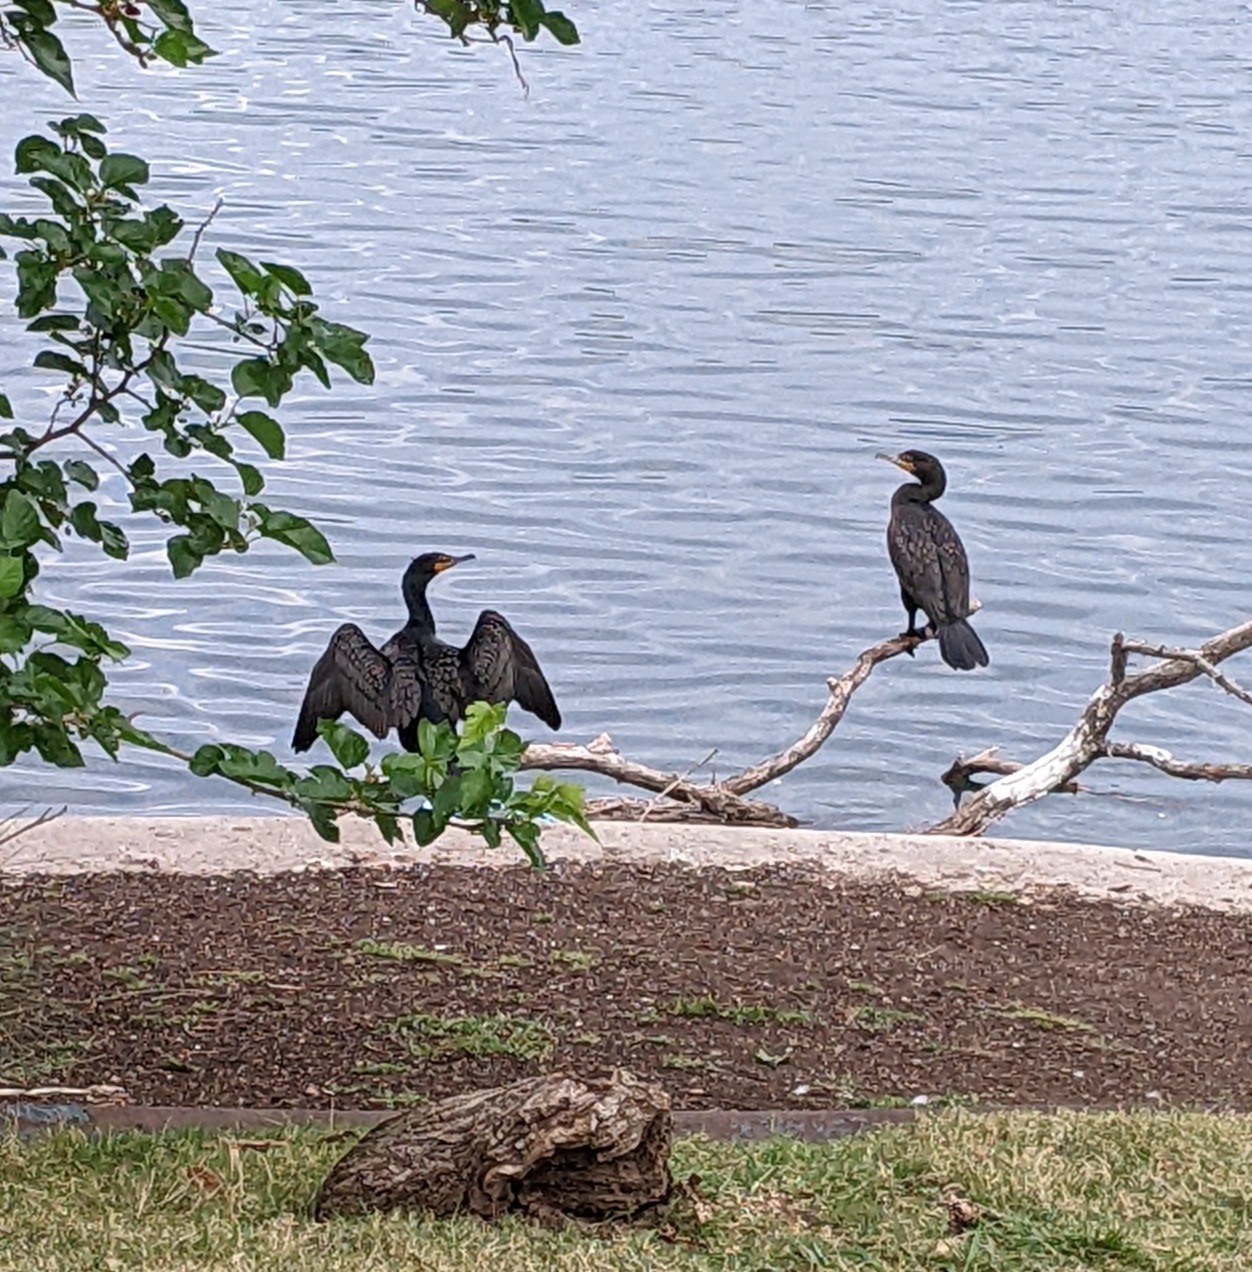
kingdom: Animalia
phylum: Chordata
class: Aves
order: Suliformes
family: Phalacrocoracidae
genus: Phalacrocorax
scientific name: Phalacrocorax brasilianus
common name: Neotropic cormorant
